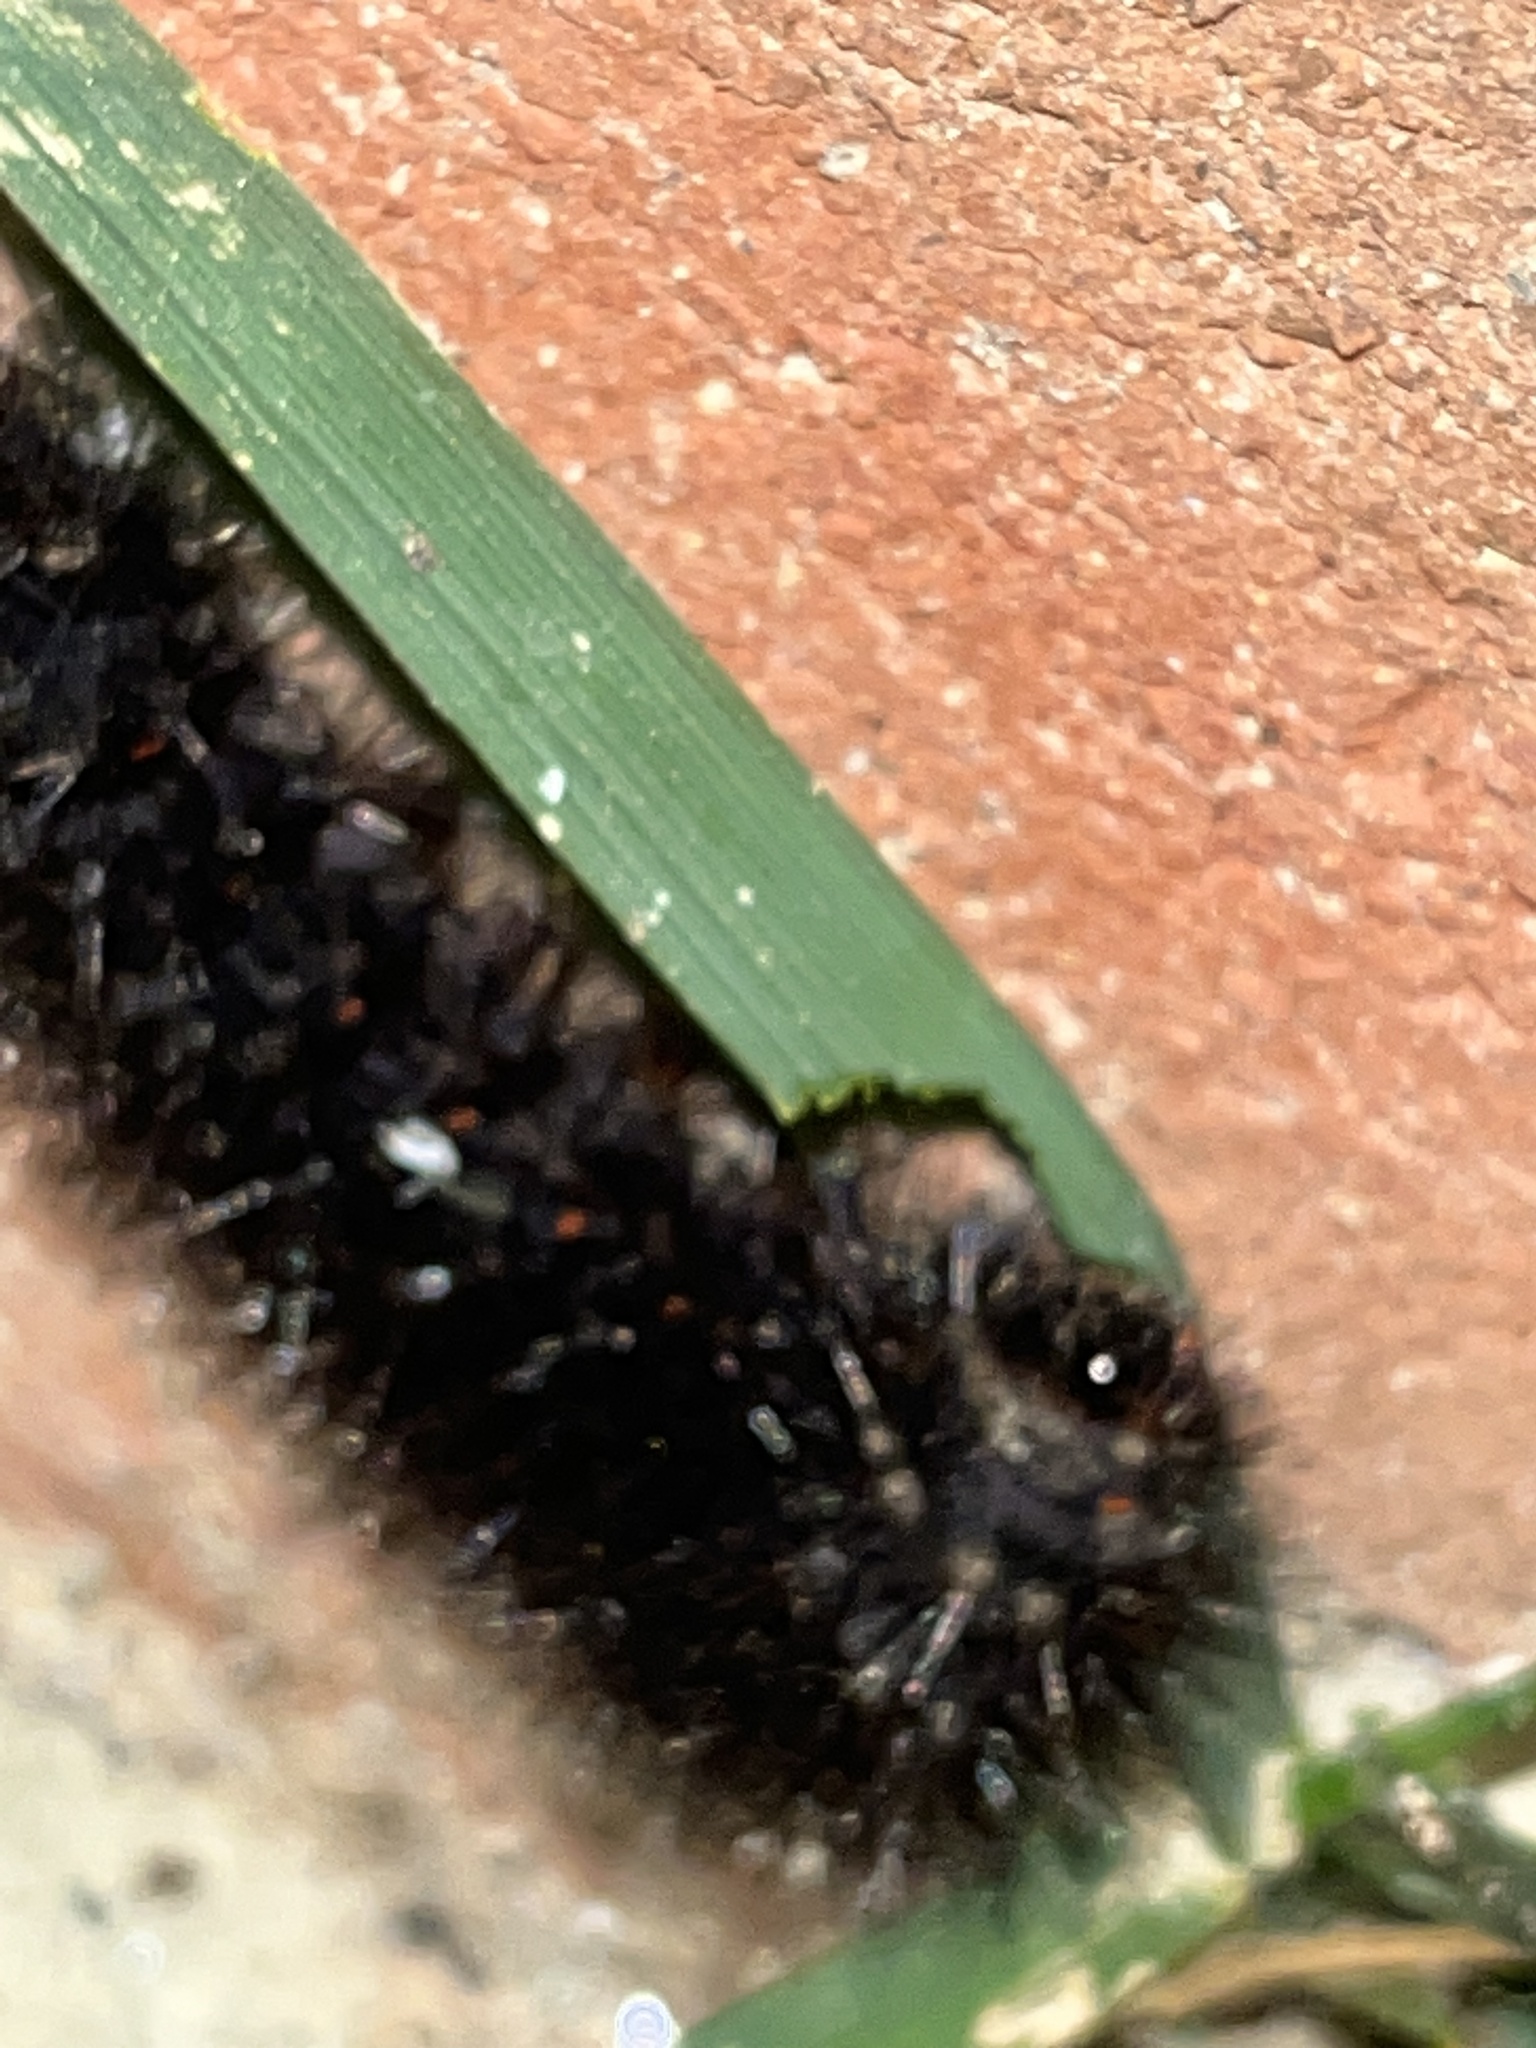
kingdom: Animalia
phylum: Arthropoda
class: Insecta
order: Lepidoptera
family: Erebidae
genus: Hypercompe
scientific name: Hypercompe scribonia
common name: Giant leopard moth
